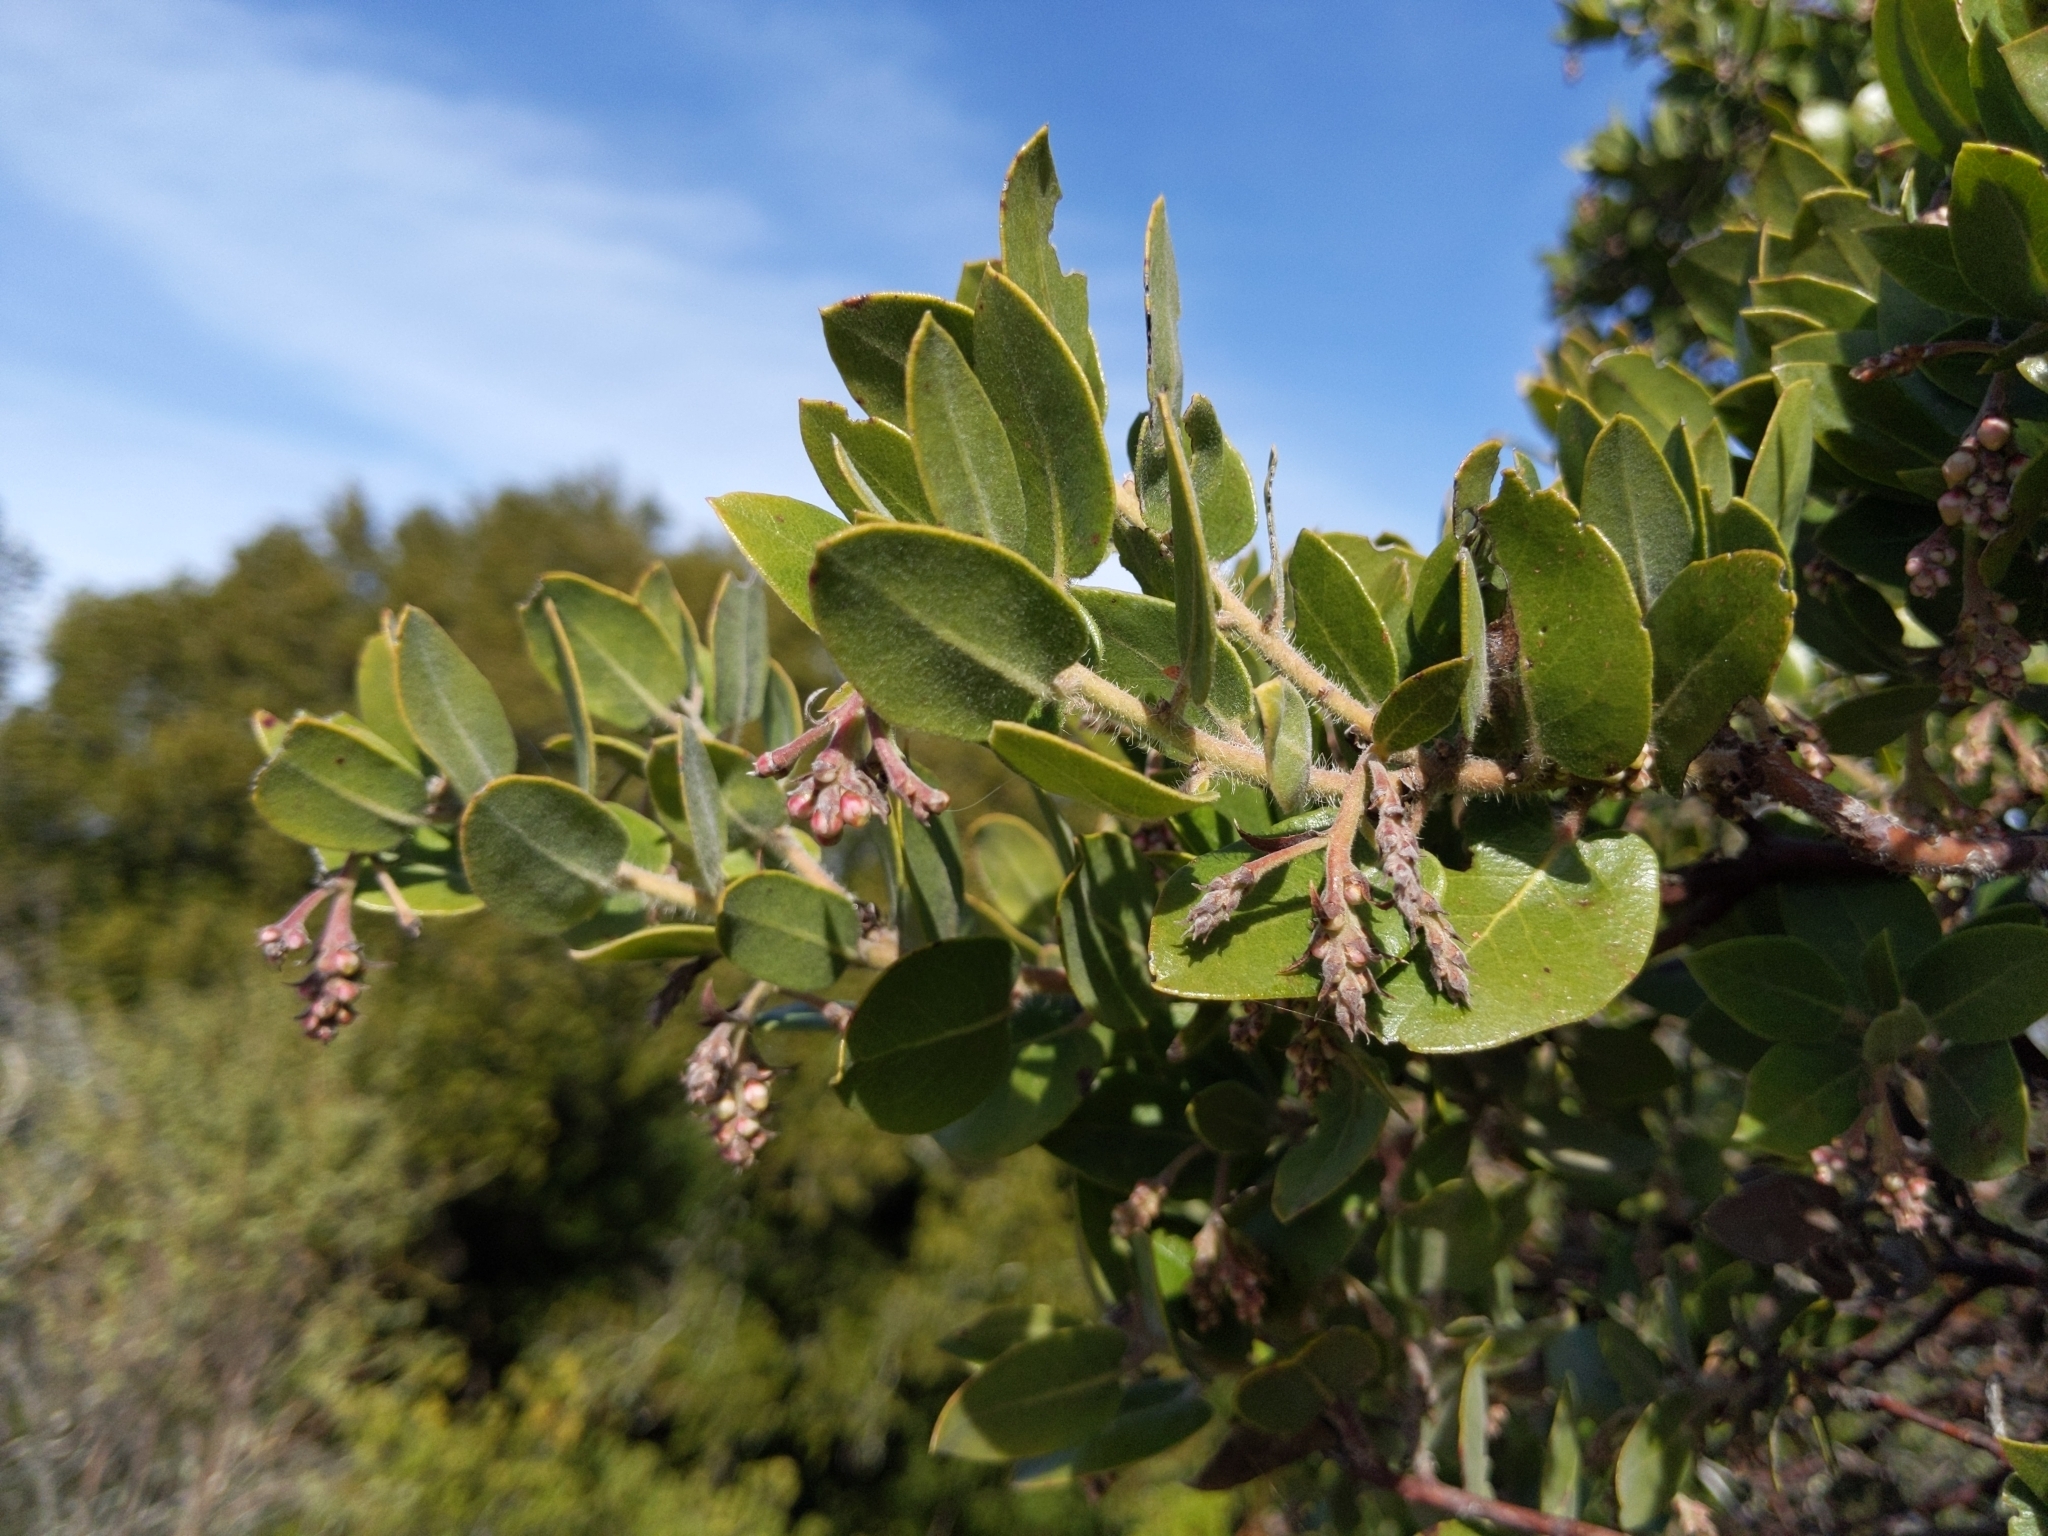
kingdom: Plantae
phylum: Tracheophyta
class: Magnoliopsida
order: Ericales
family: Ericaceae
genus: Arctostaphylos
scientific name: Arctostaphylos crustacea
